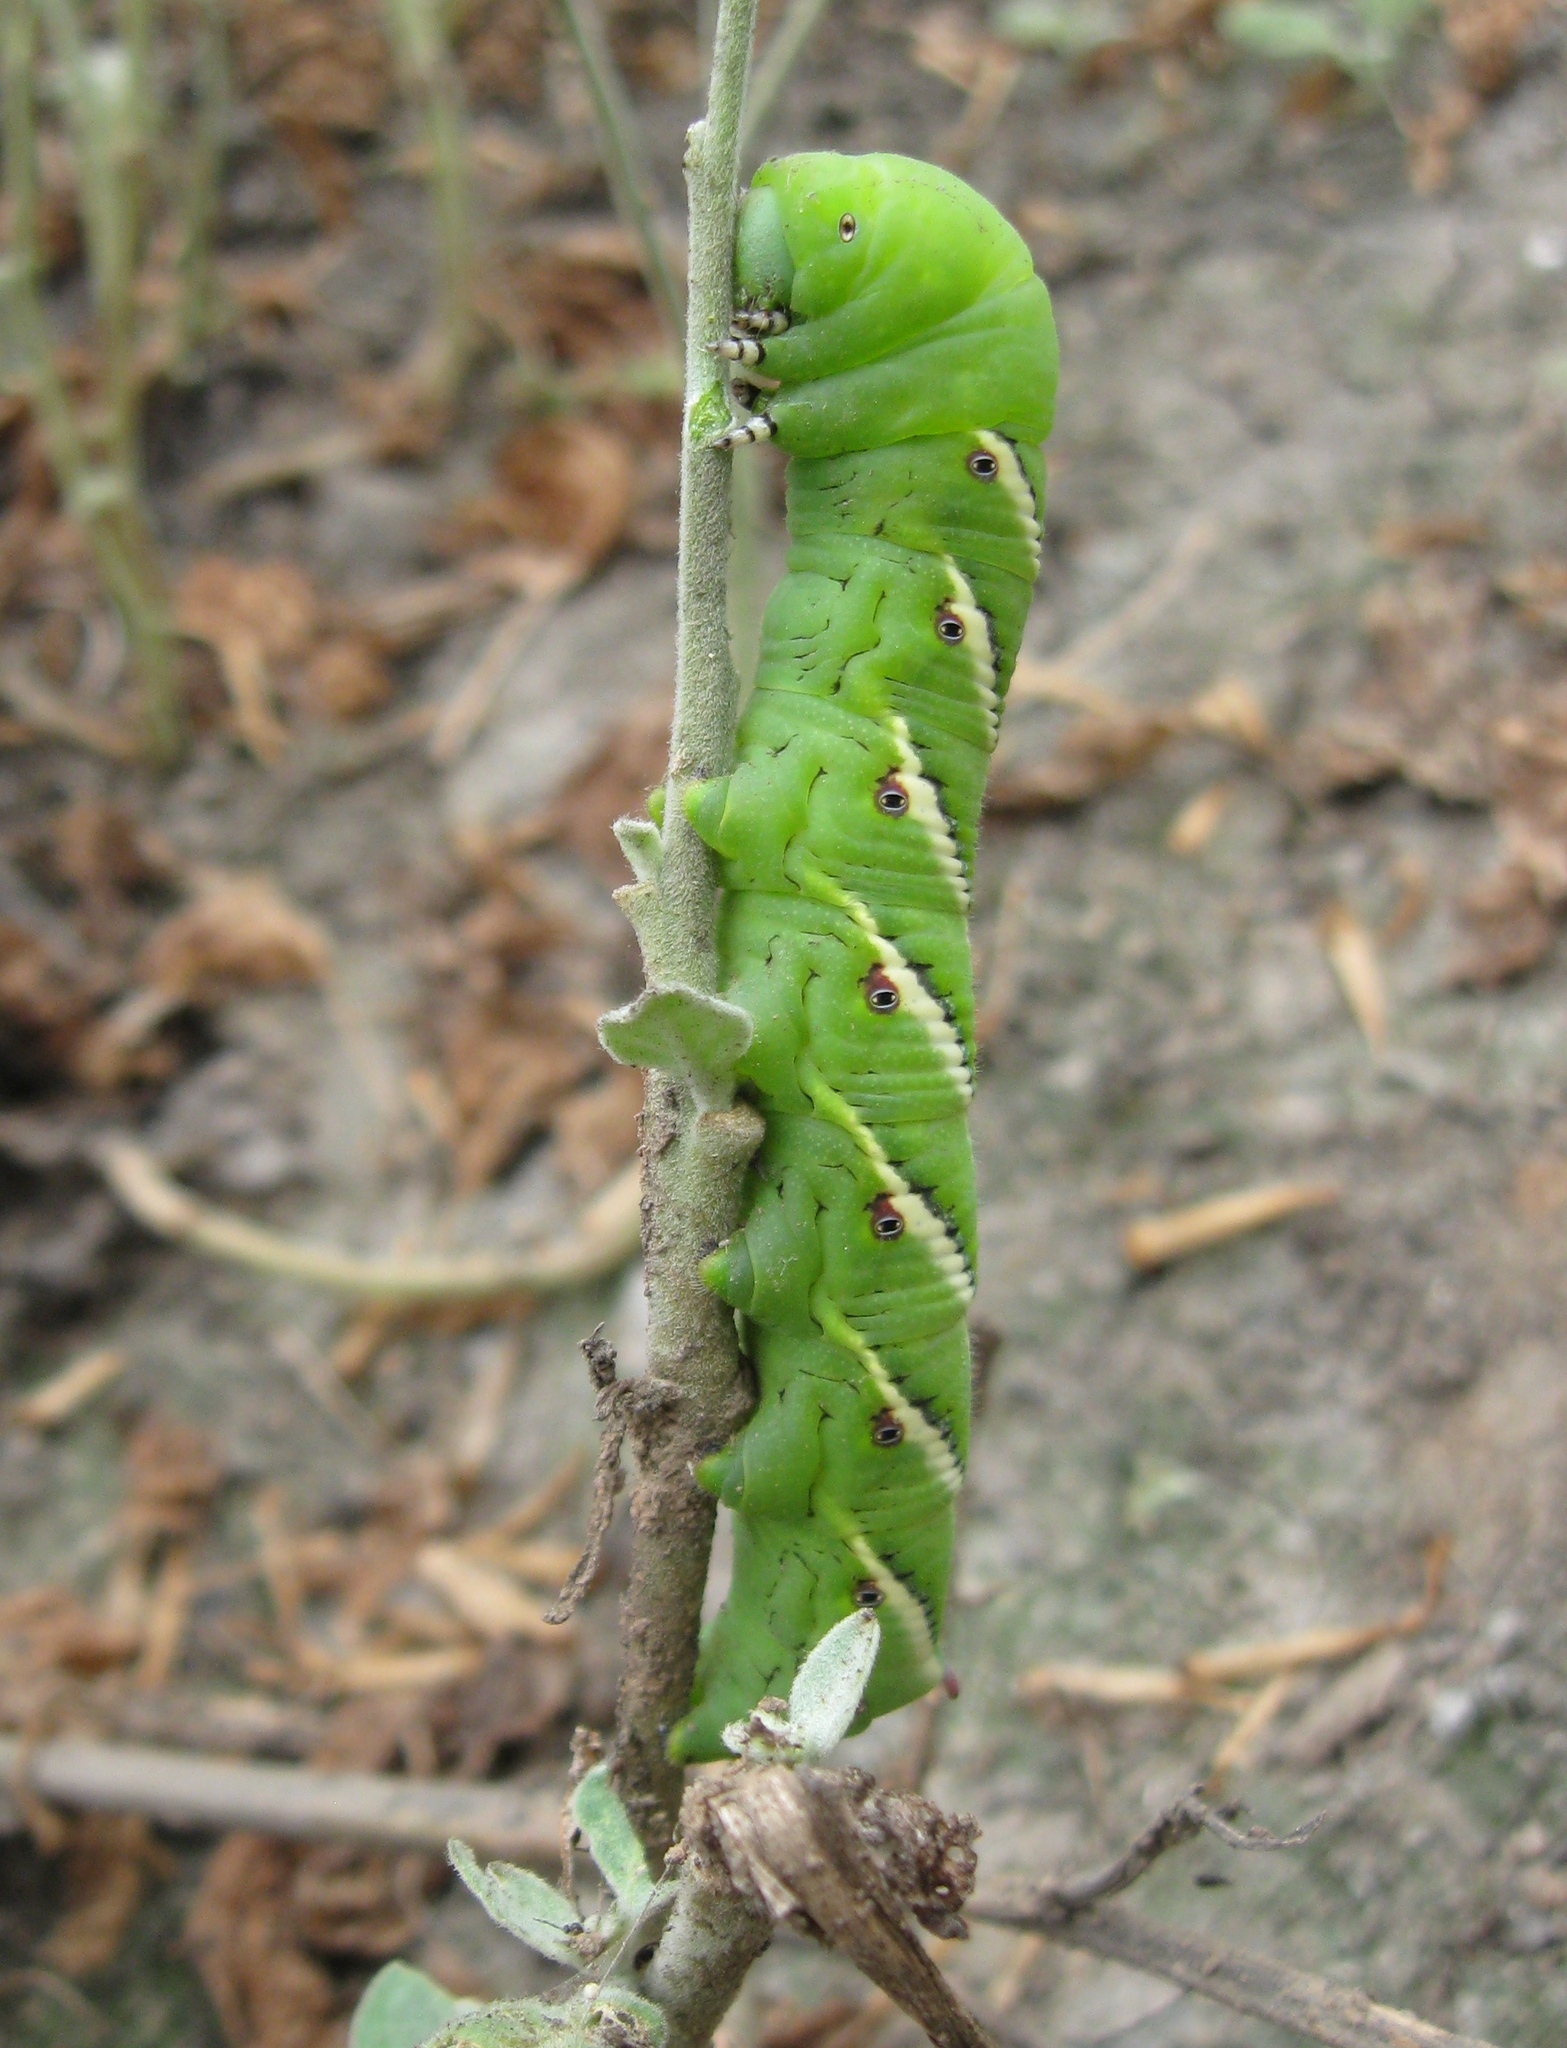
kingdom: Animalia
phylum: Arthropoda
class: Insecta
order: Lepidoptera
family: Sphingidae
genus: Manduca
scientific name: Manduca afflicta
